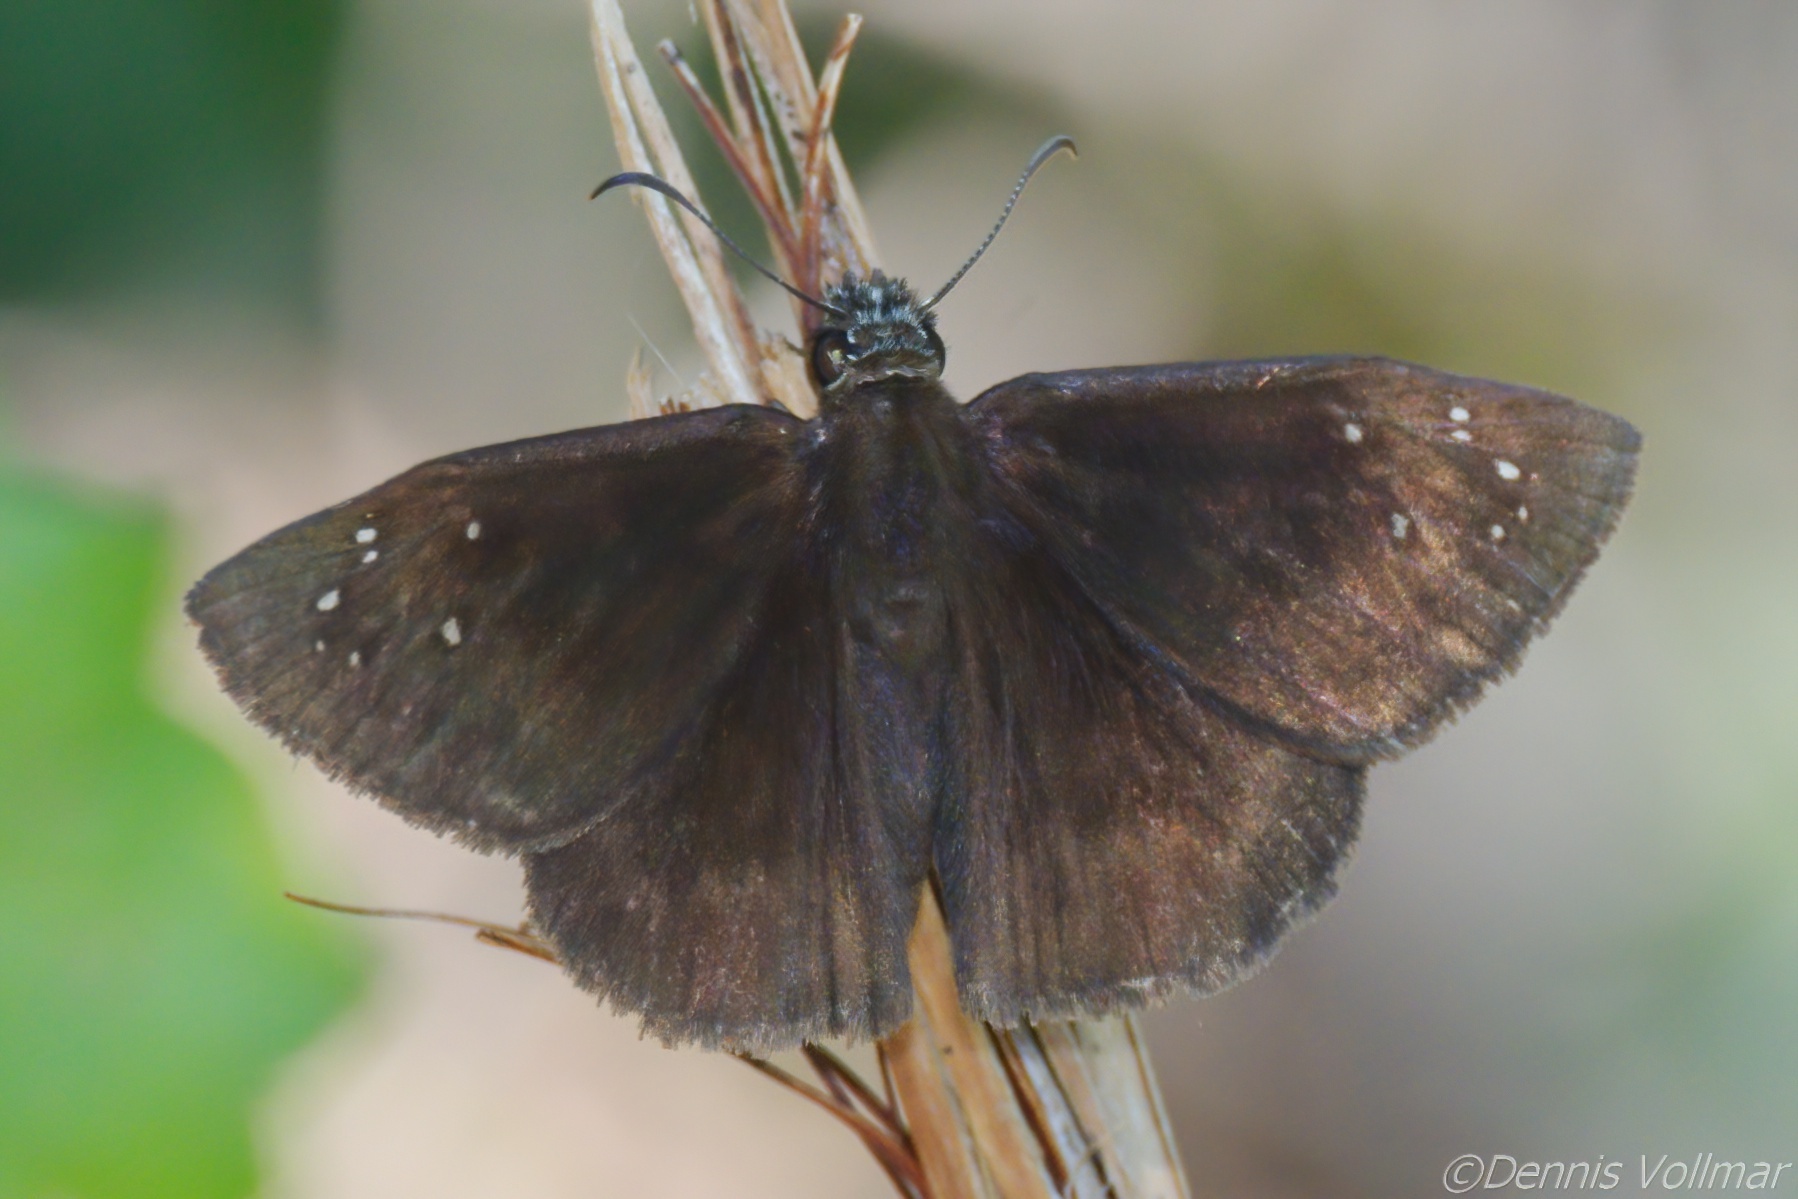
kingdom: Animalia
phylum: Arthropoda
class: Insecta
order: Lepidoptera
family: Hesperiidae
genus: Ephyriades
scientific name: Ephyriades brunnea
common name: Florida duskywing
